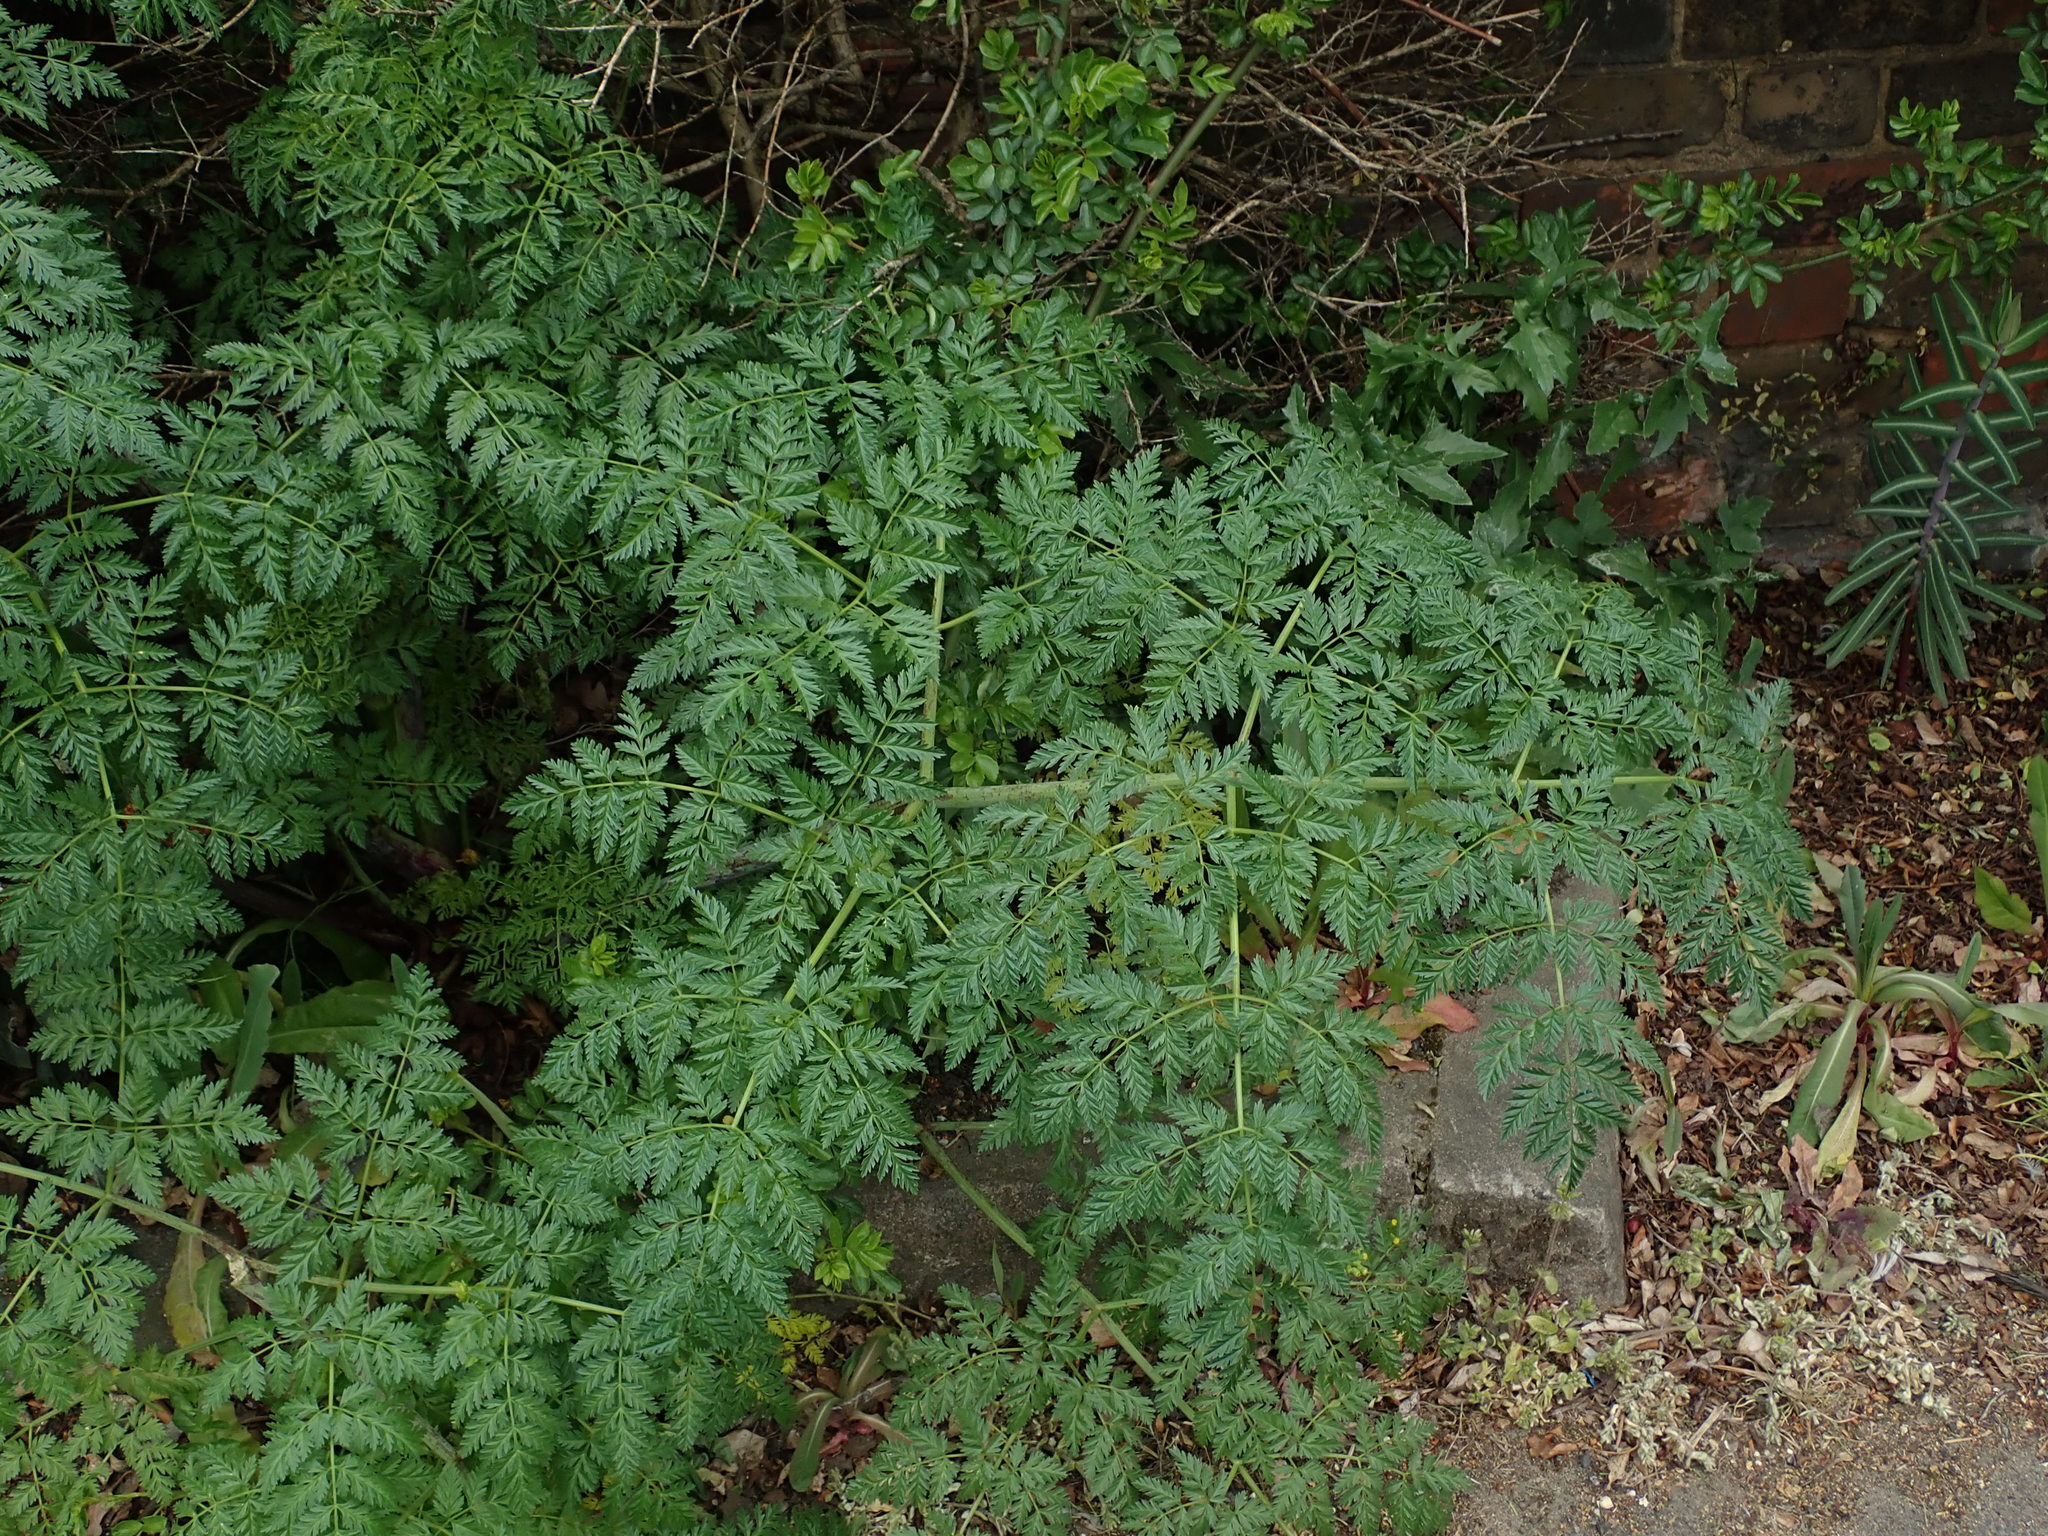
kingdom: Plantae
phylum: Tracheophyta
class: Magnoliopsida
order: Apiales
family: Apiaceae
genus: Conium
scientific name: Conium maculatum
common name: Hemlock
